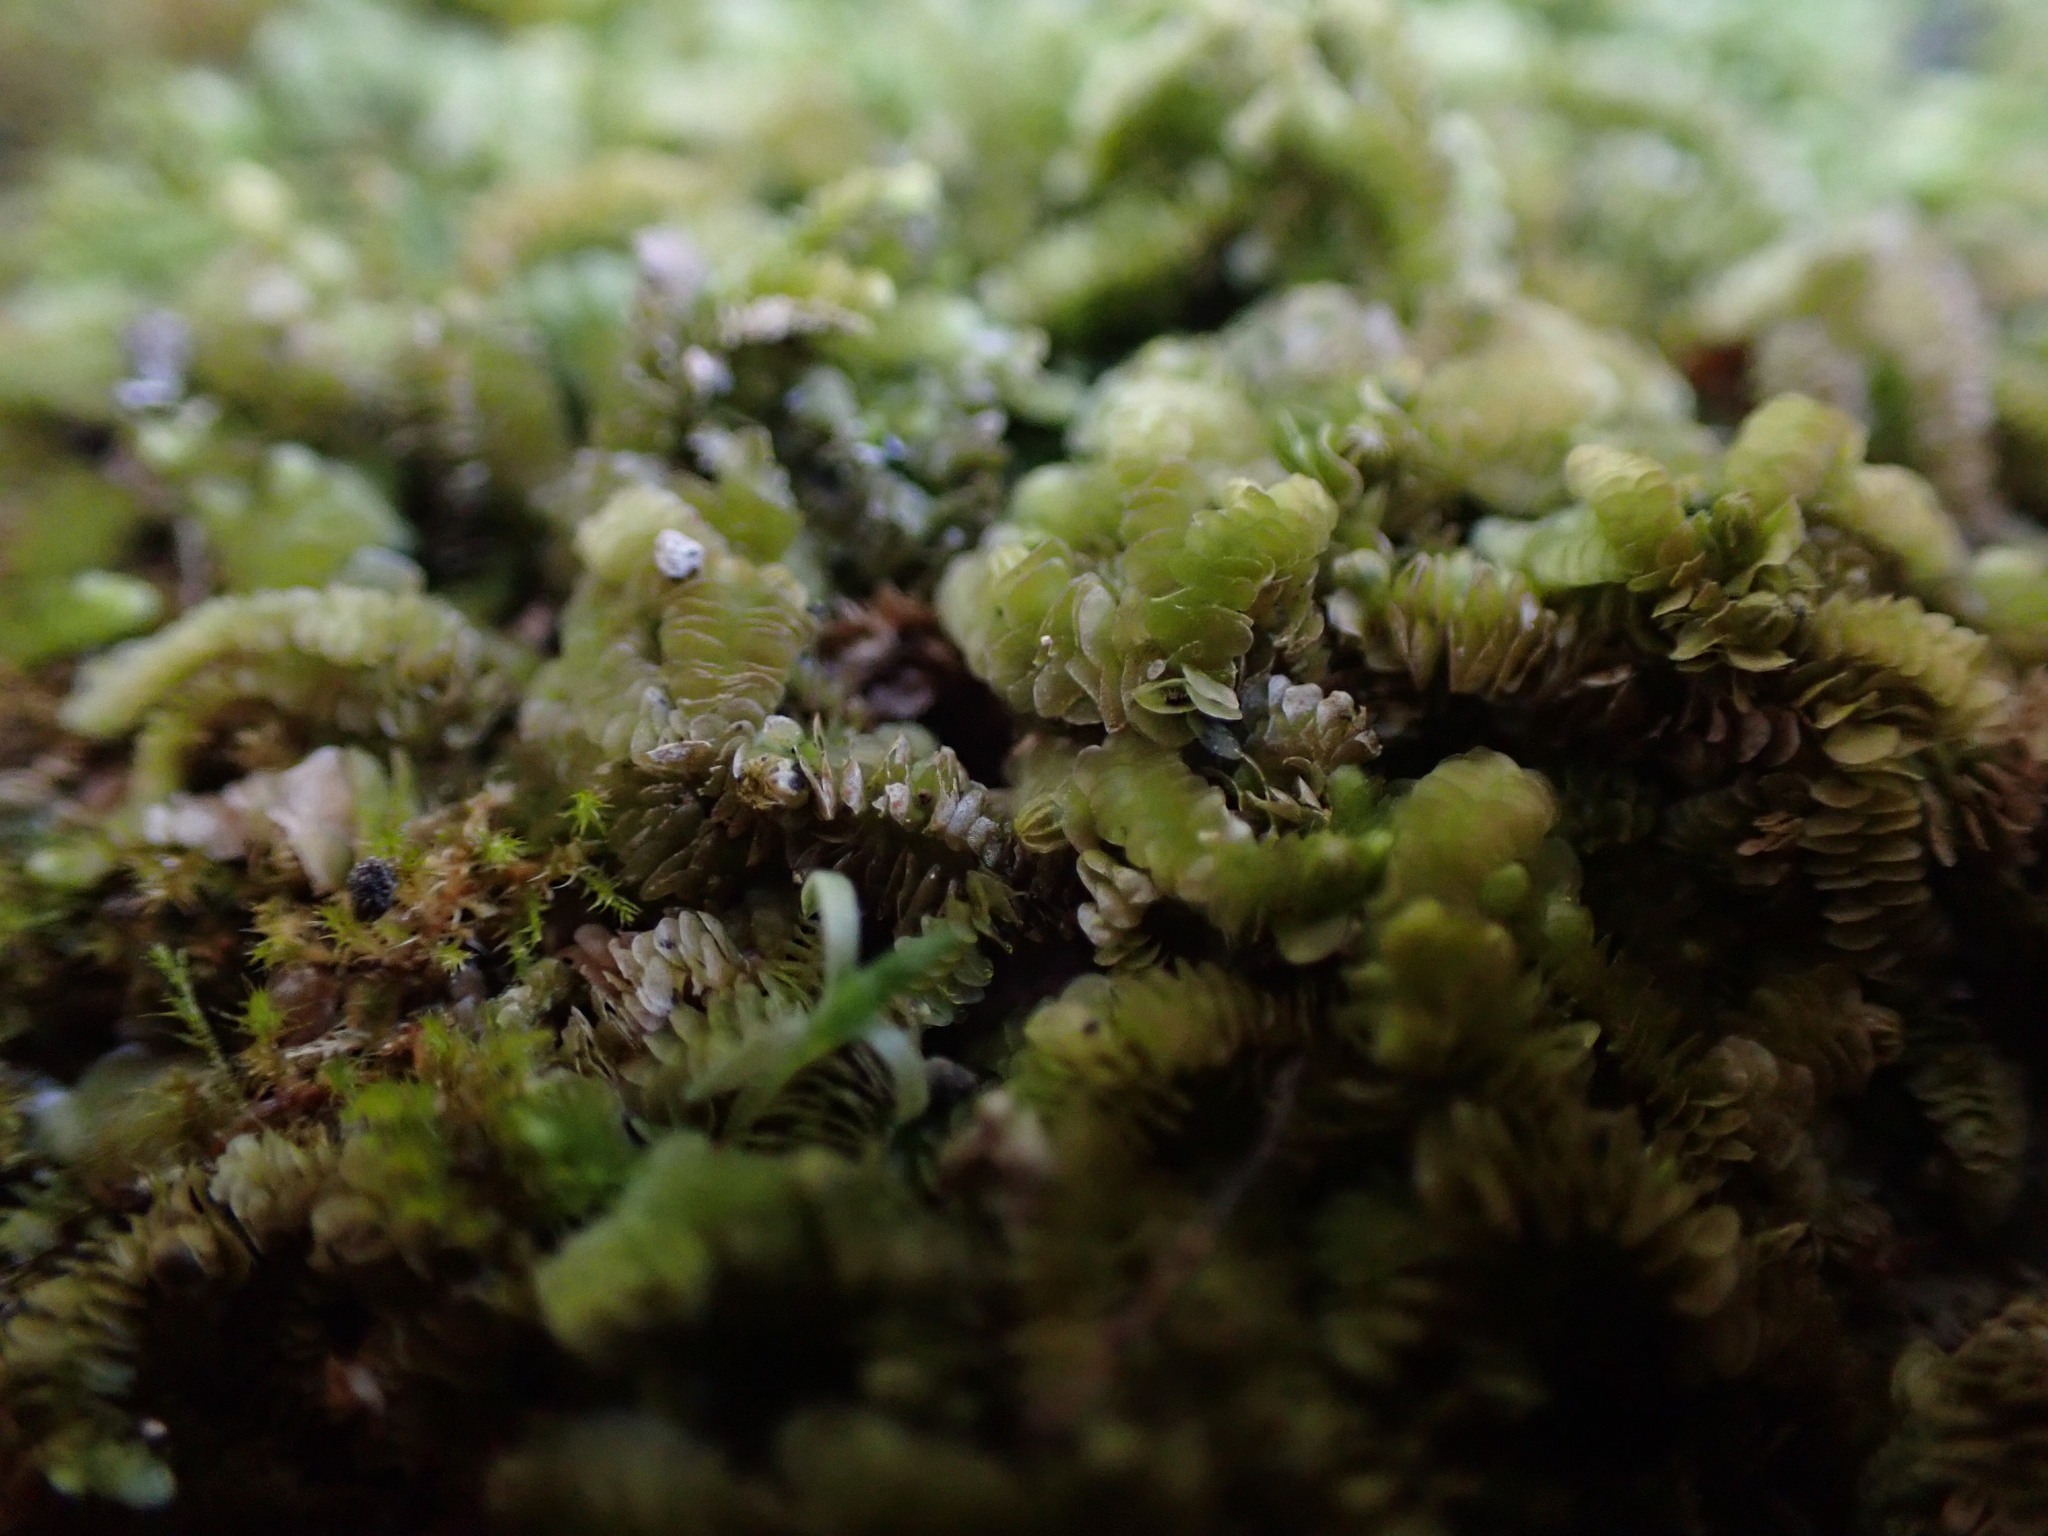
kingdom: Plantae
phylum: Marchantiophyta
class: Jungermanniopsida
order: Porellales
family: Lejeuneaceae
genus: Acrolejeunea
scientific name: Acrolejeunea sandvicensis
